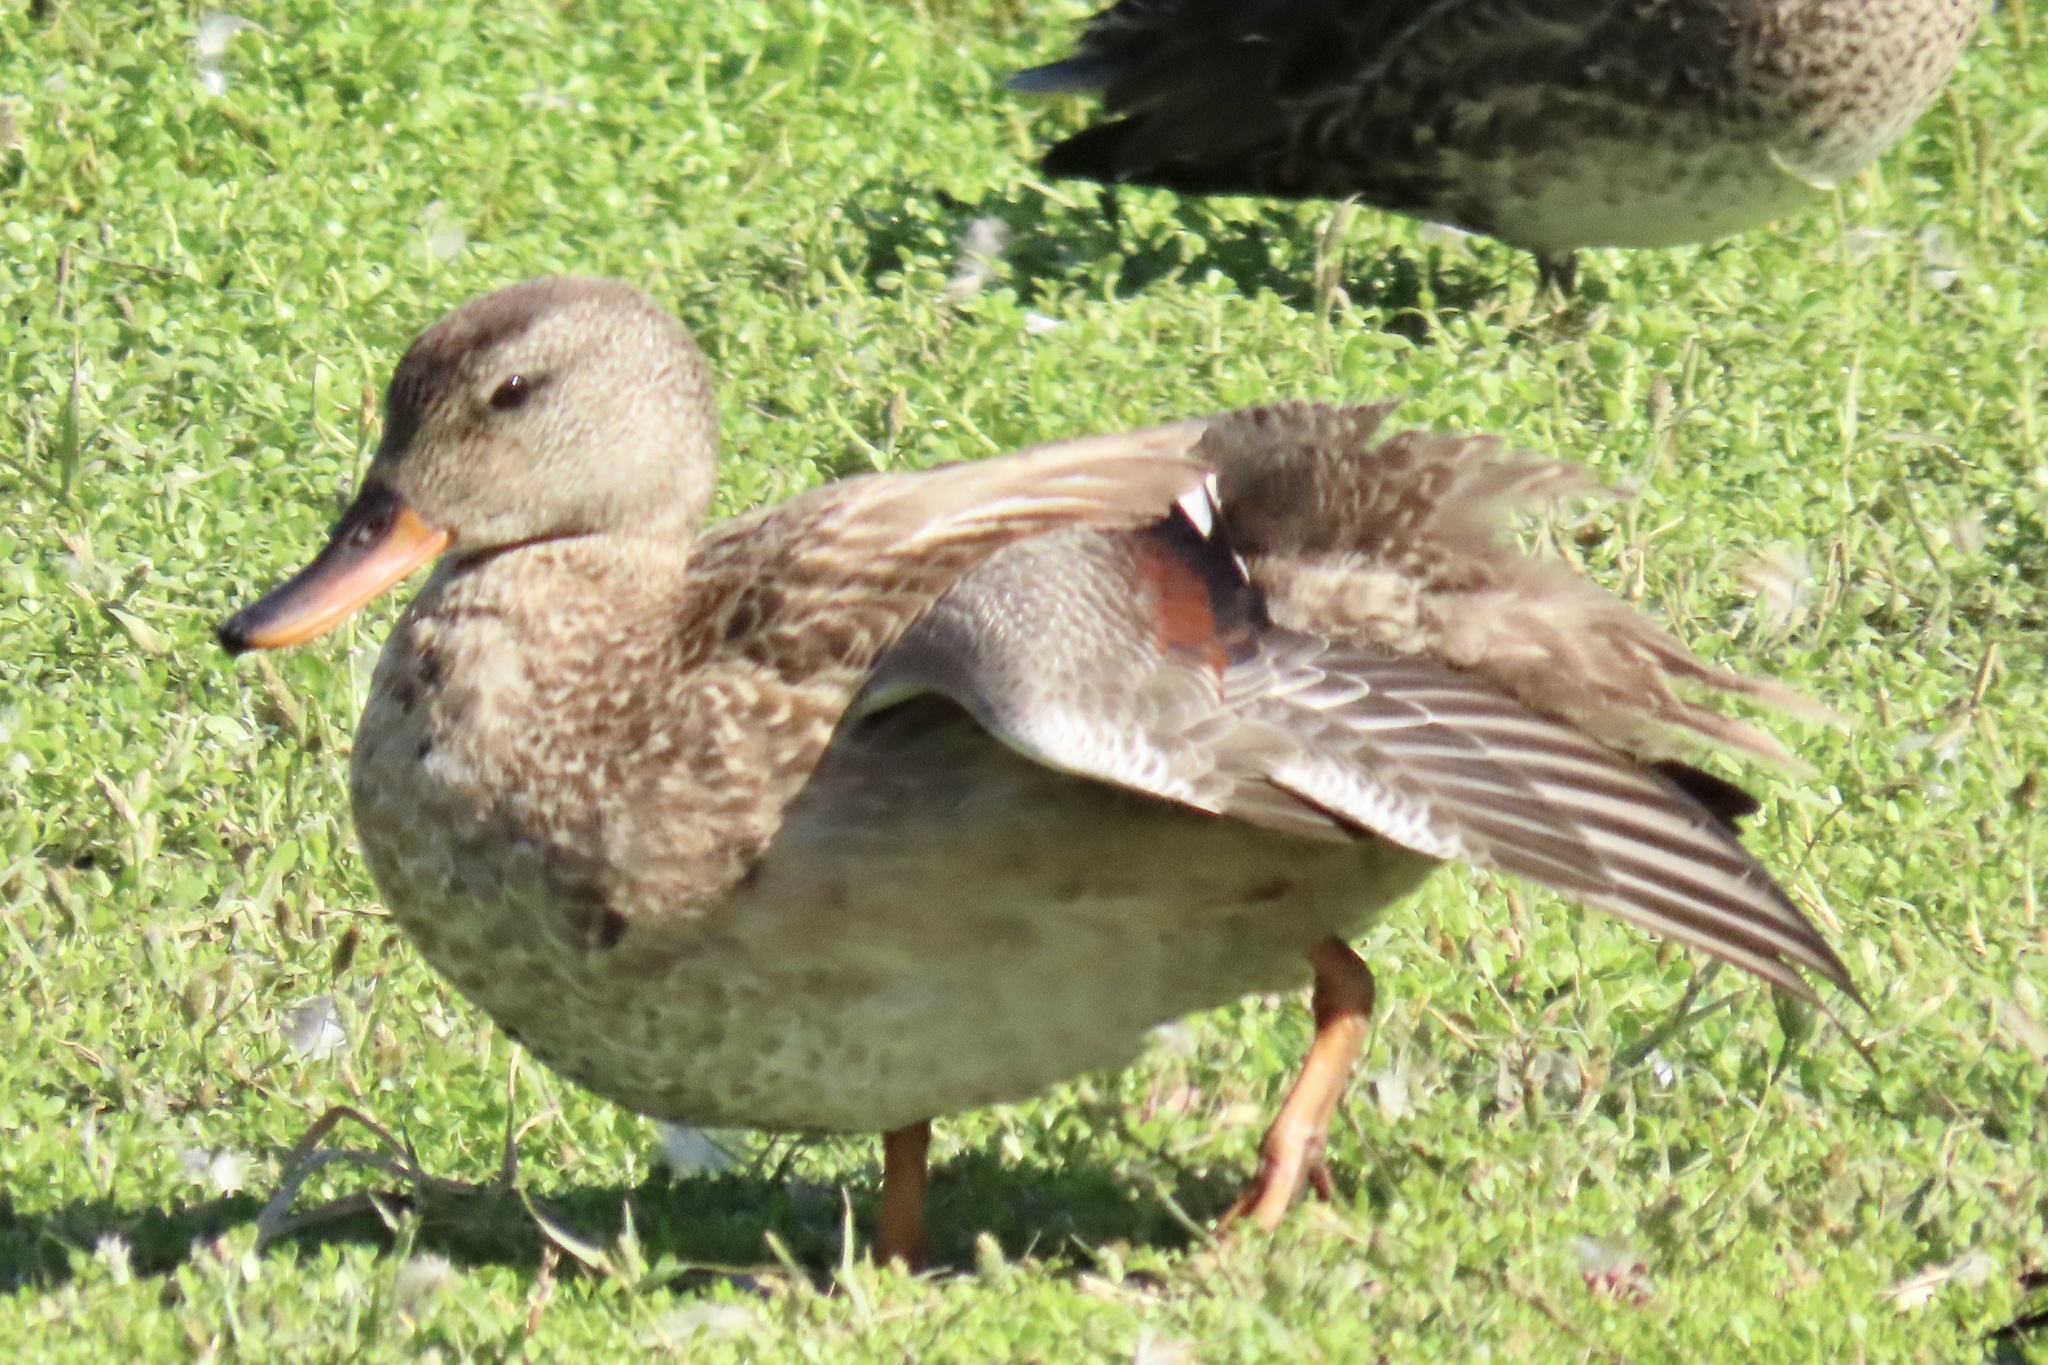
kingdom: Animalia
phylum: Chordata
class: Aves
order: Anseriformes
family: Anatidae
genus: Mareca
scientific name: Mareca strepera
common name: Gadwall
